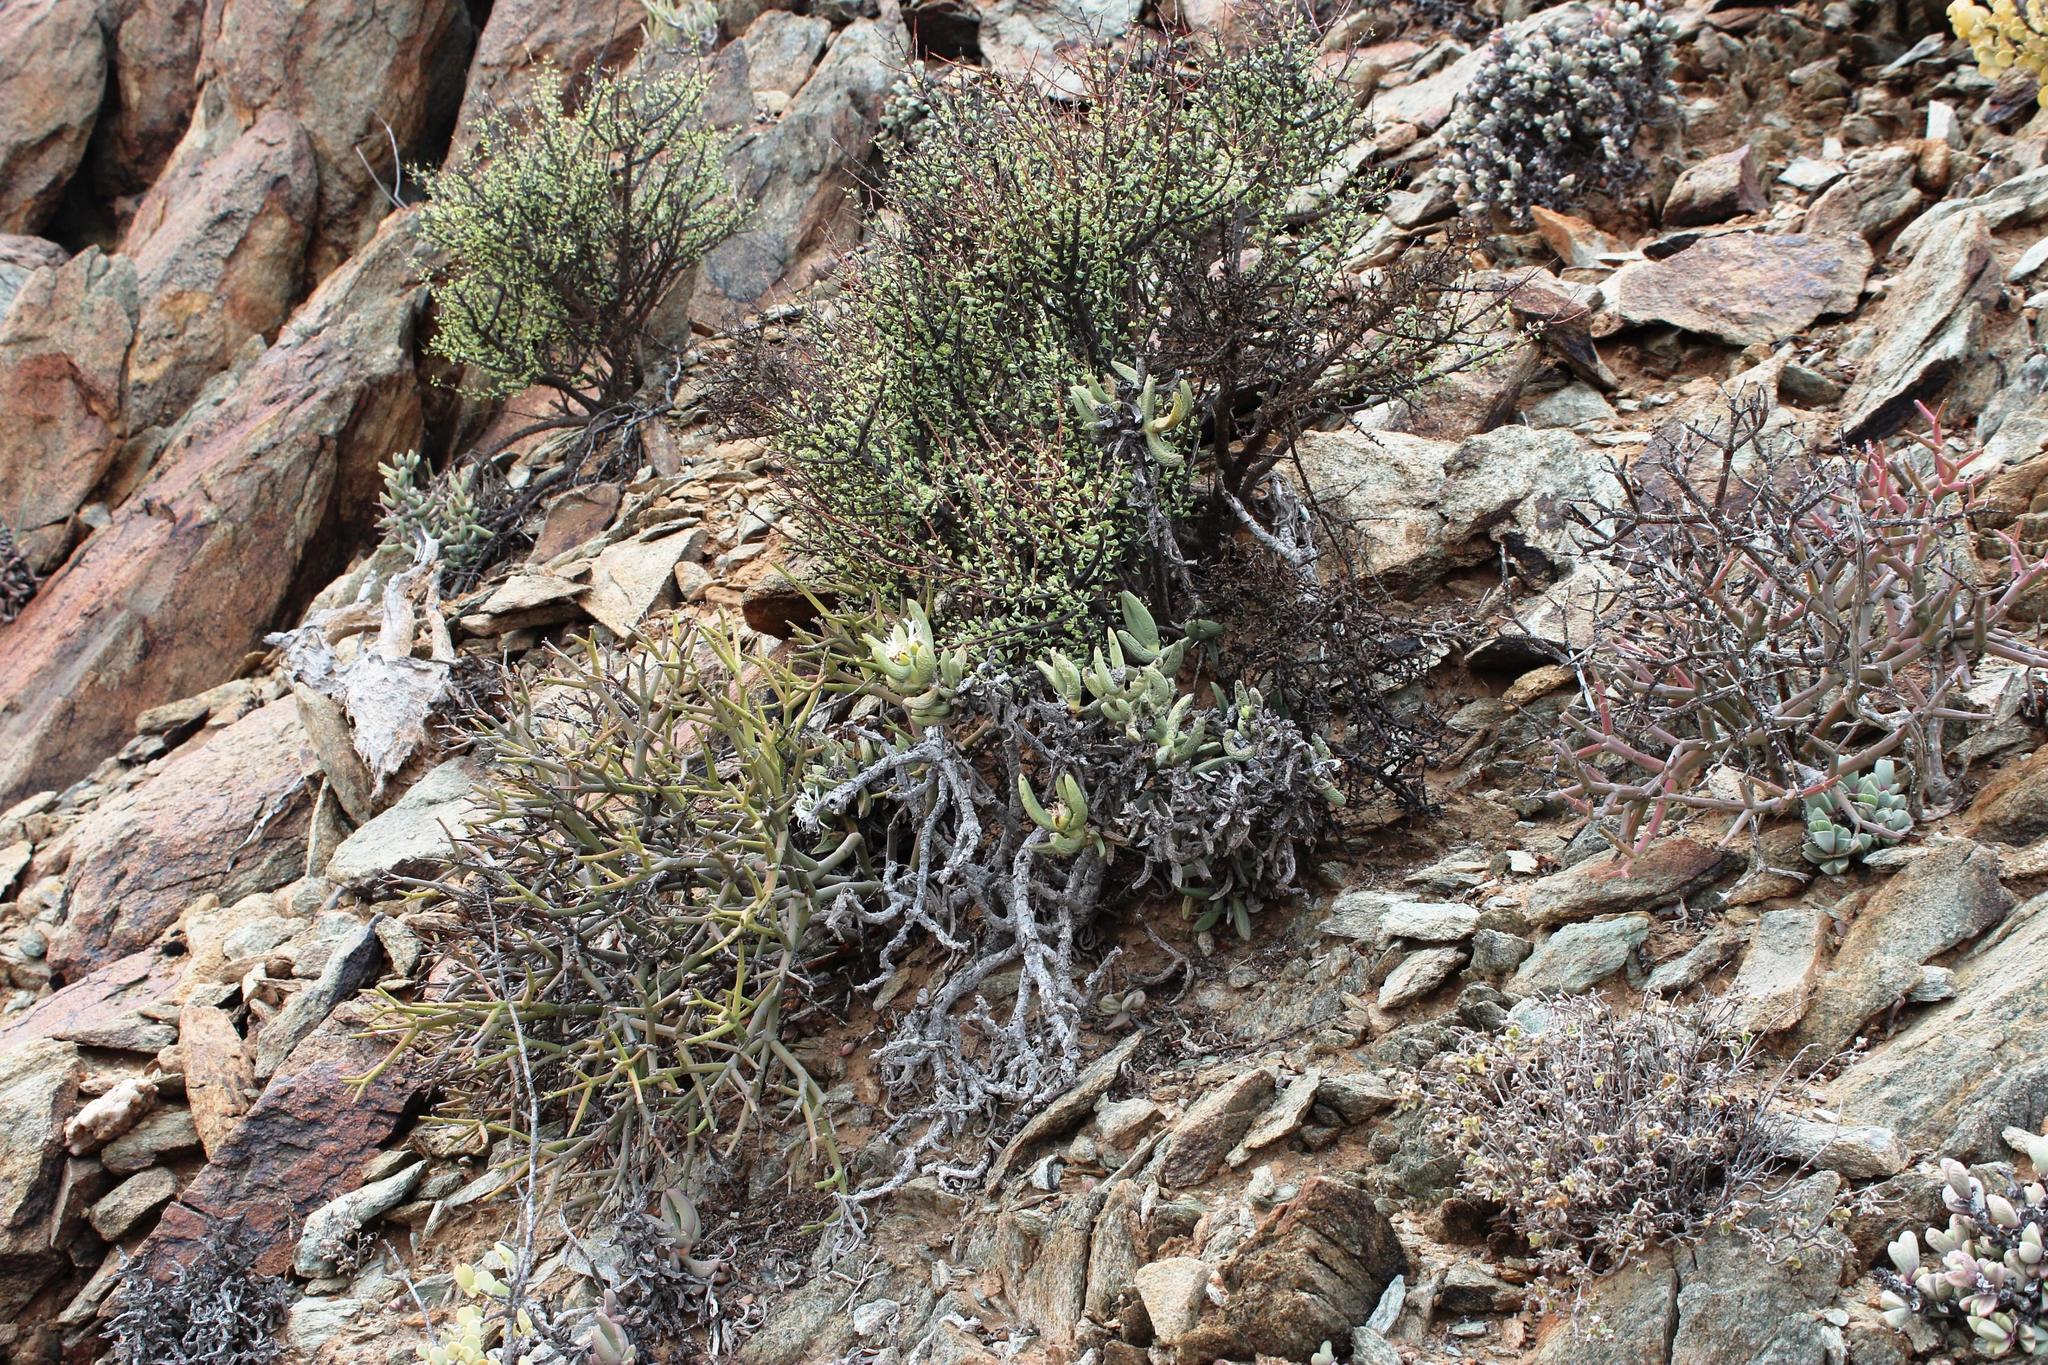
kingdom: Plantae
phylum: Tracheophyta
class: Magnoliopsida
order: Caryophyllales
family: Aizoaceae
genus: Astridia
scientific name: Astridia longifolia
